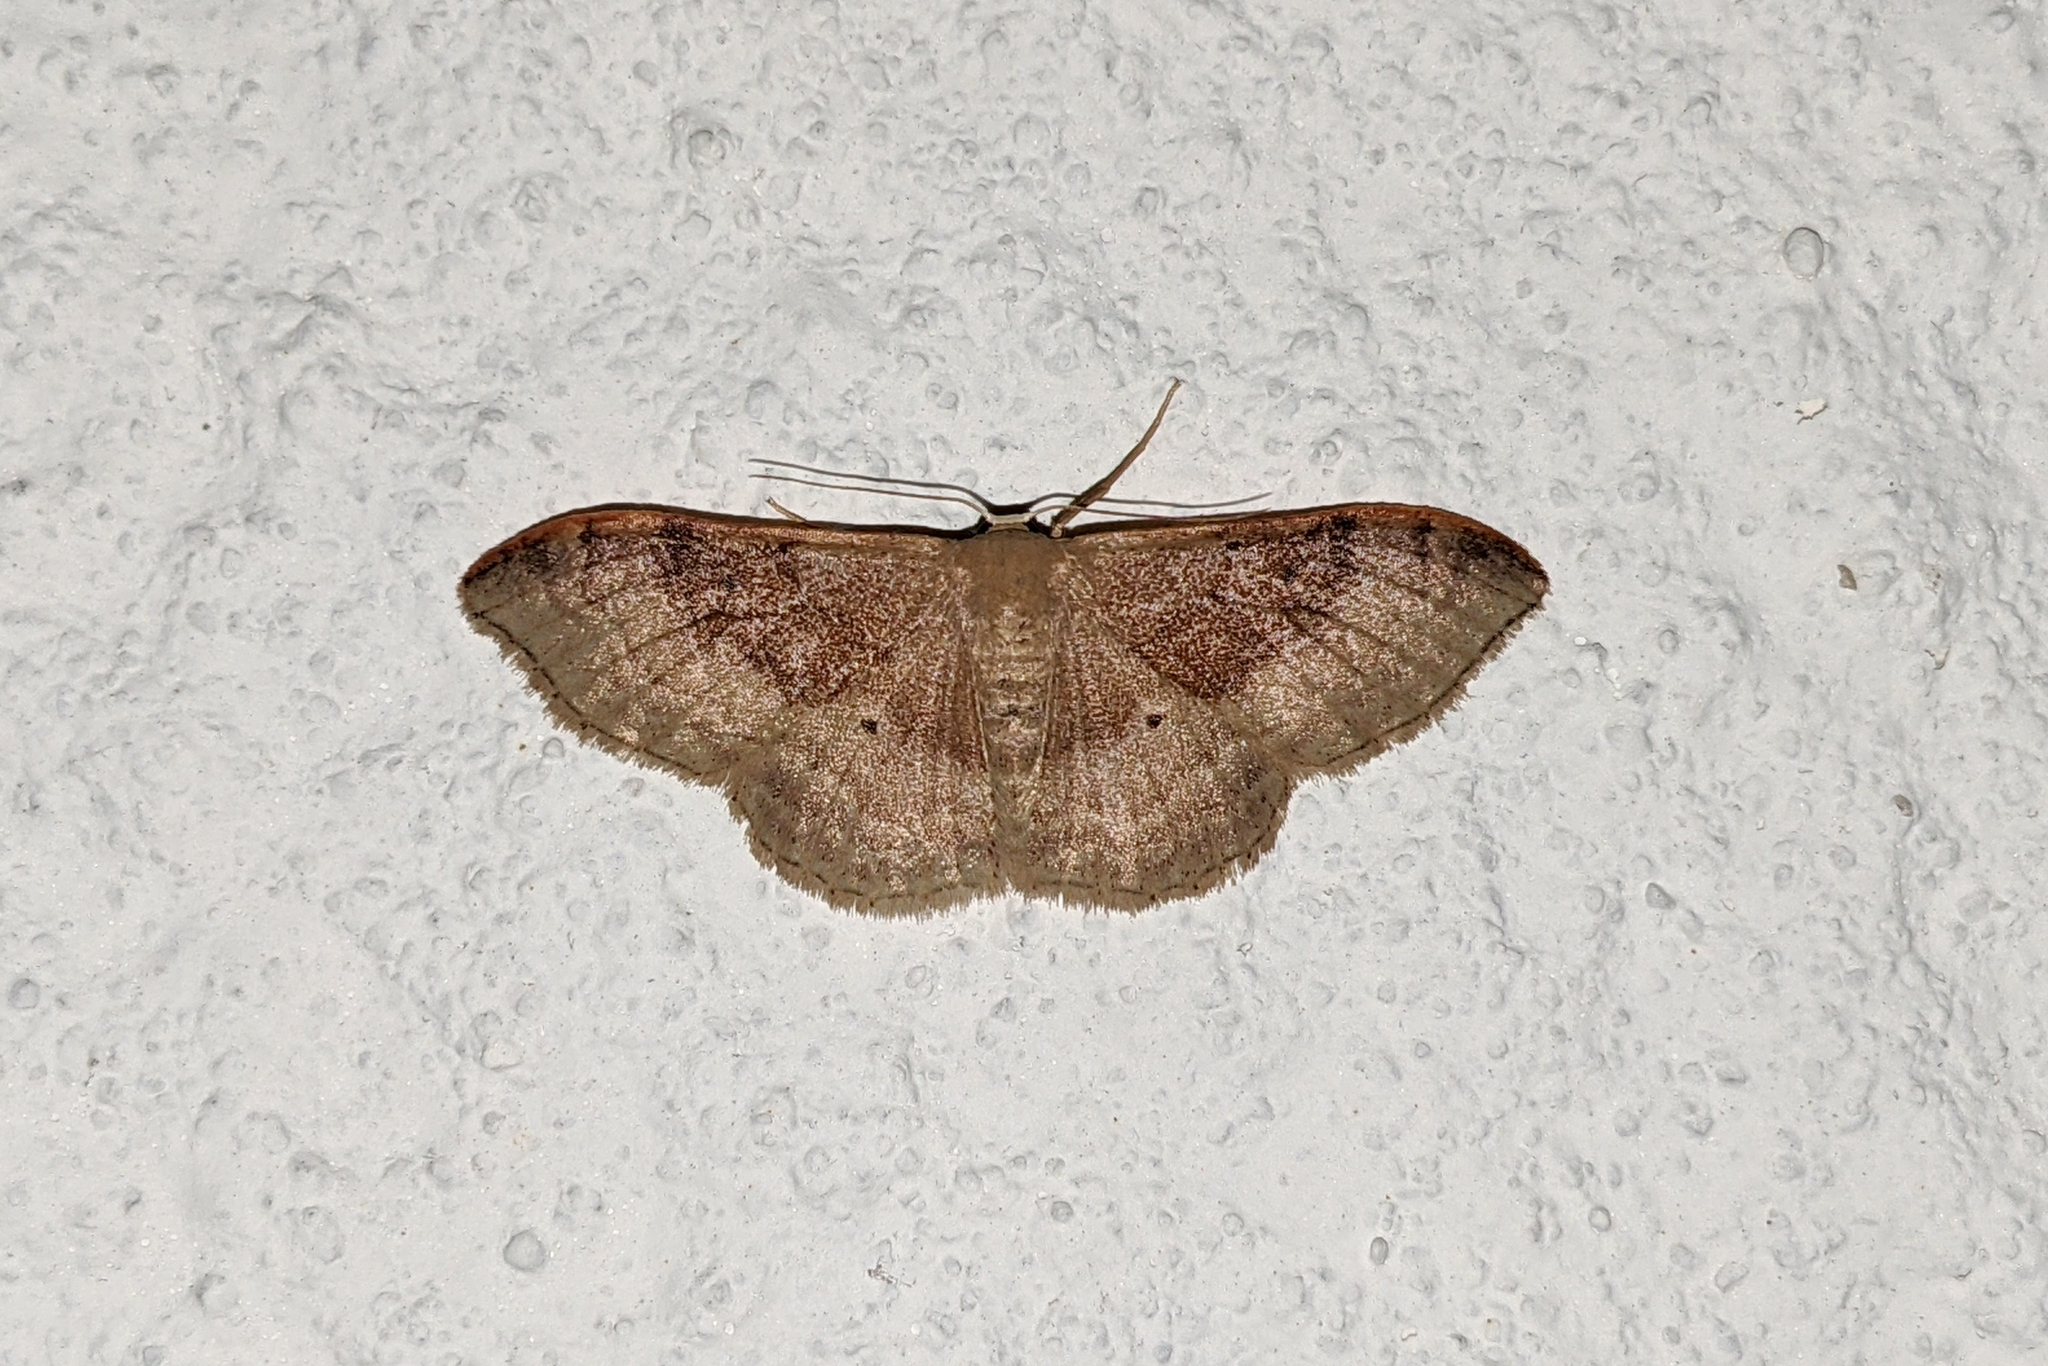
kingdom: Animalia
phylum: Arthropoda
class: Insecta
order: Lepidoptera
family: Geometridae
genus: Idaea
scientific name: Idaea degeneraria
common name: Portland ribbon wave
